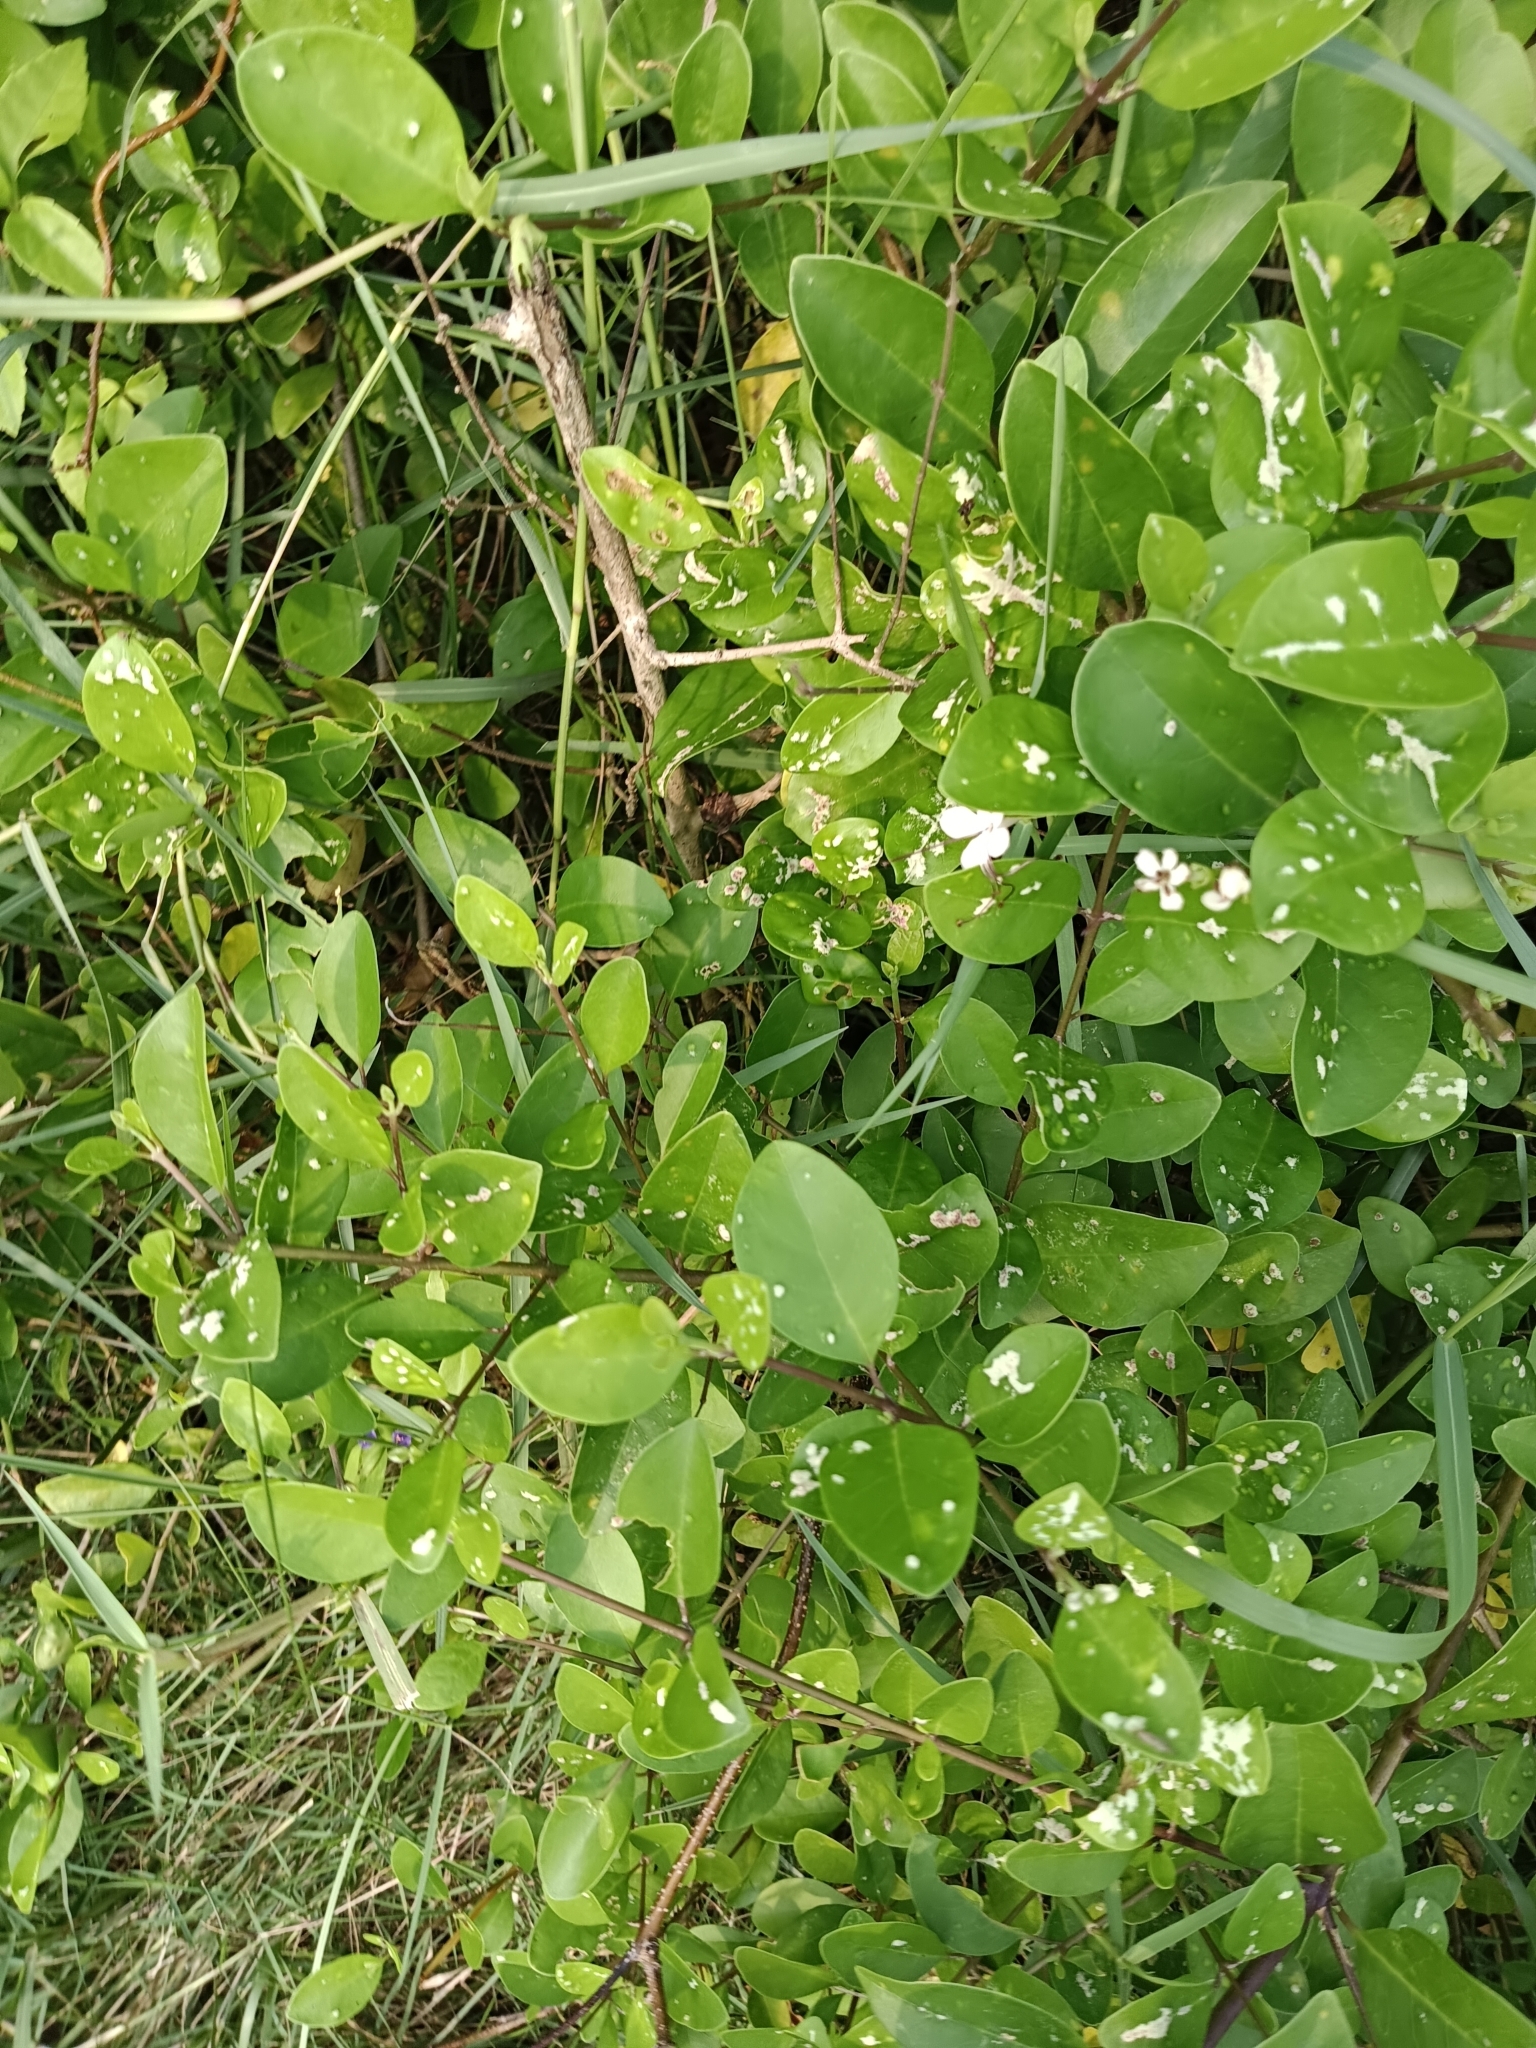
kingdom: Plantae
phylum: Tracheophyta
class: Magnoliopsida
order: Lamiales
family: Lamiaceae
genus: Volkameria
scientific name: Volkameria inermis
